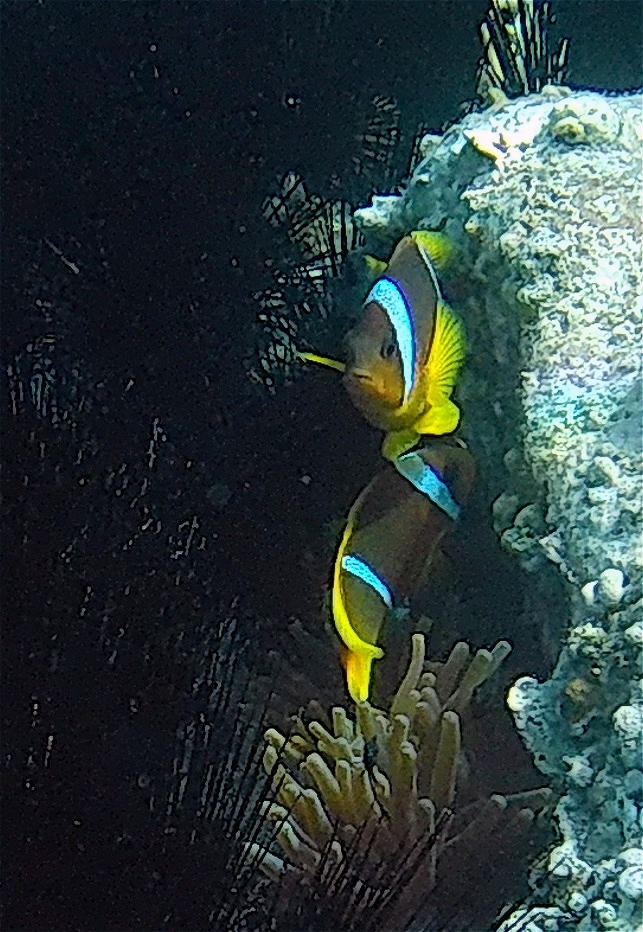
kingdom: Animalia
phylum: Chordata
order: Perciformes
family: Pomacentridae
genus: Amphiprion
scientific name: Amphiprion bicinctus
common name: Two-banded anemonefish
